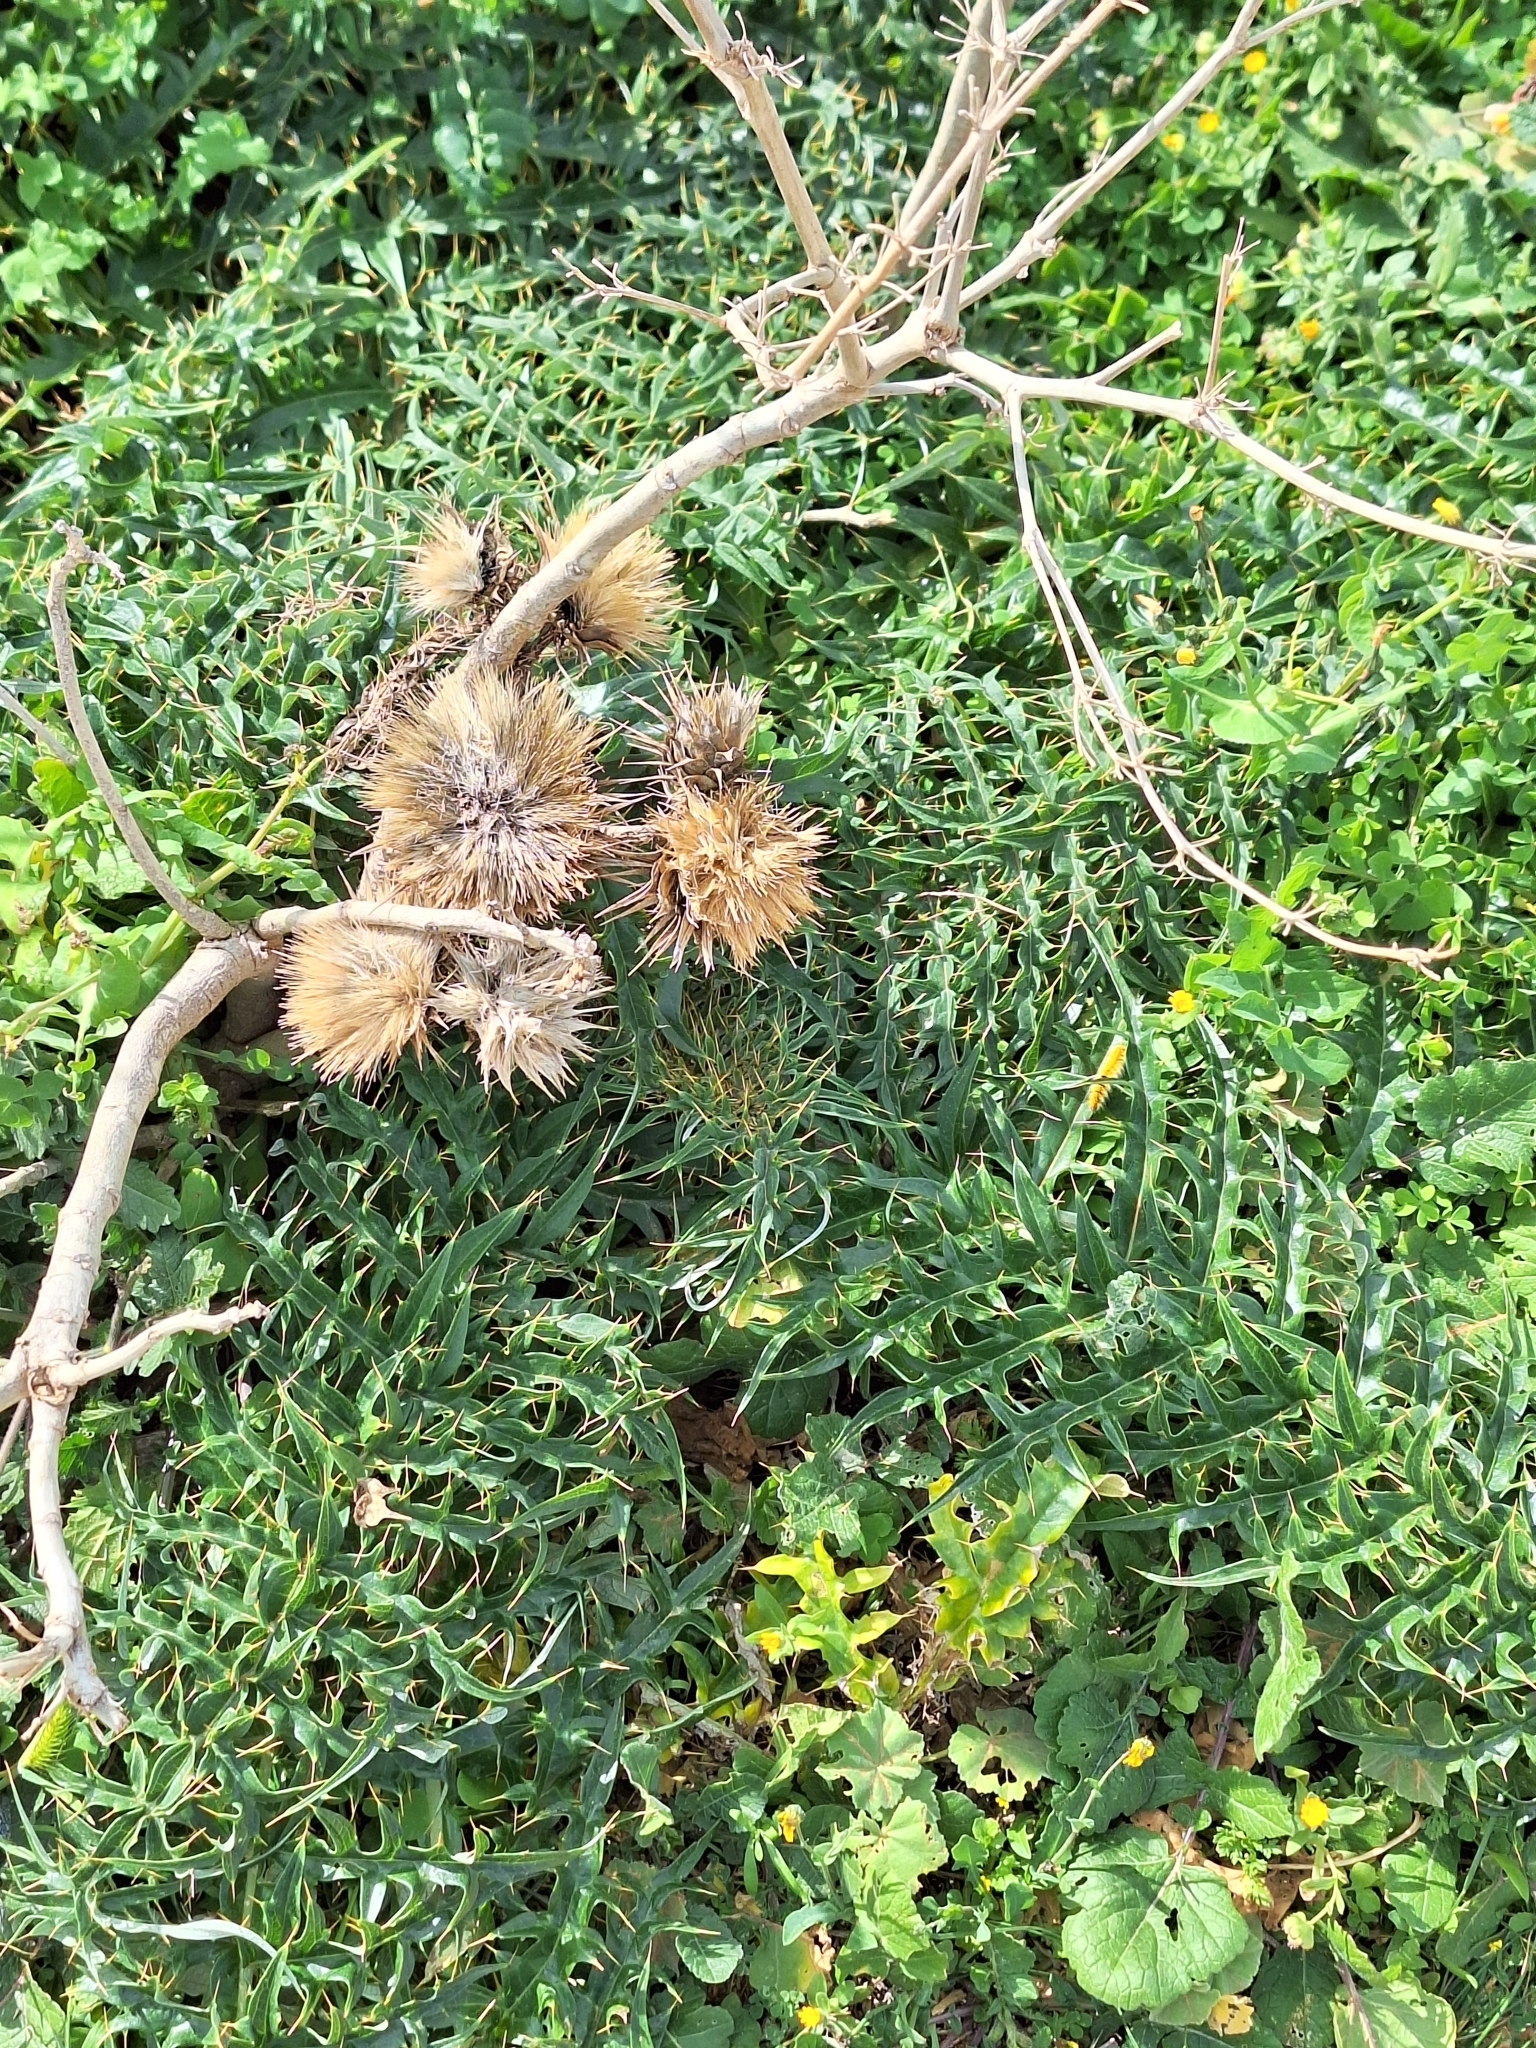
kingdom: Plantae
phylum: Tracheophyta
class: Magnoliopsida
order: Asterales
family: Asteraceae
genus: Cynara
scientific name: Cynara cardunculus
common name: Globe artichoke
